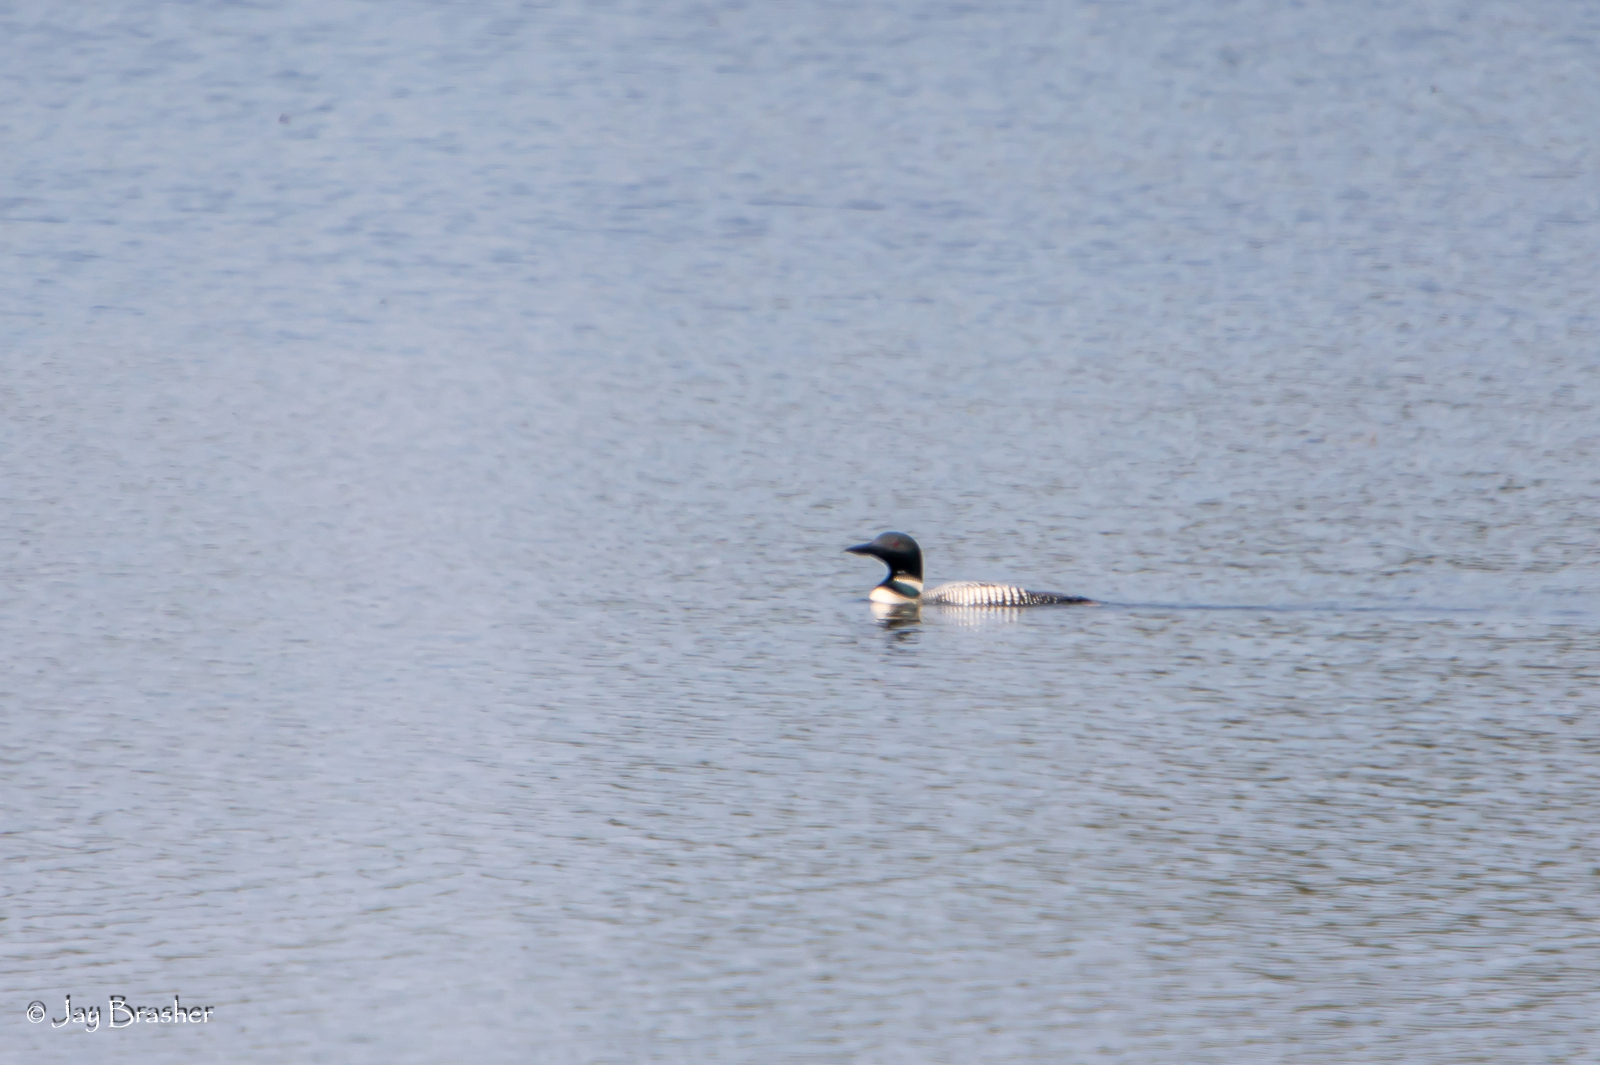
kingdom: Animalia
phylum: Chordata
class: Aves
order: Gaviiformes
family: Gaviidae
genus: Gavia
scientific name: Gavia immer
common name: Common loon
